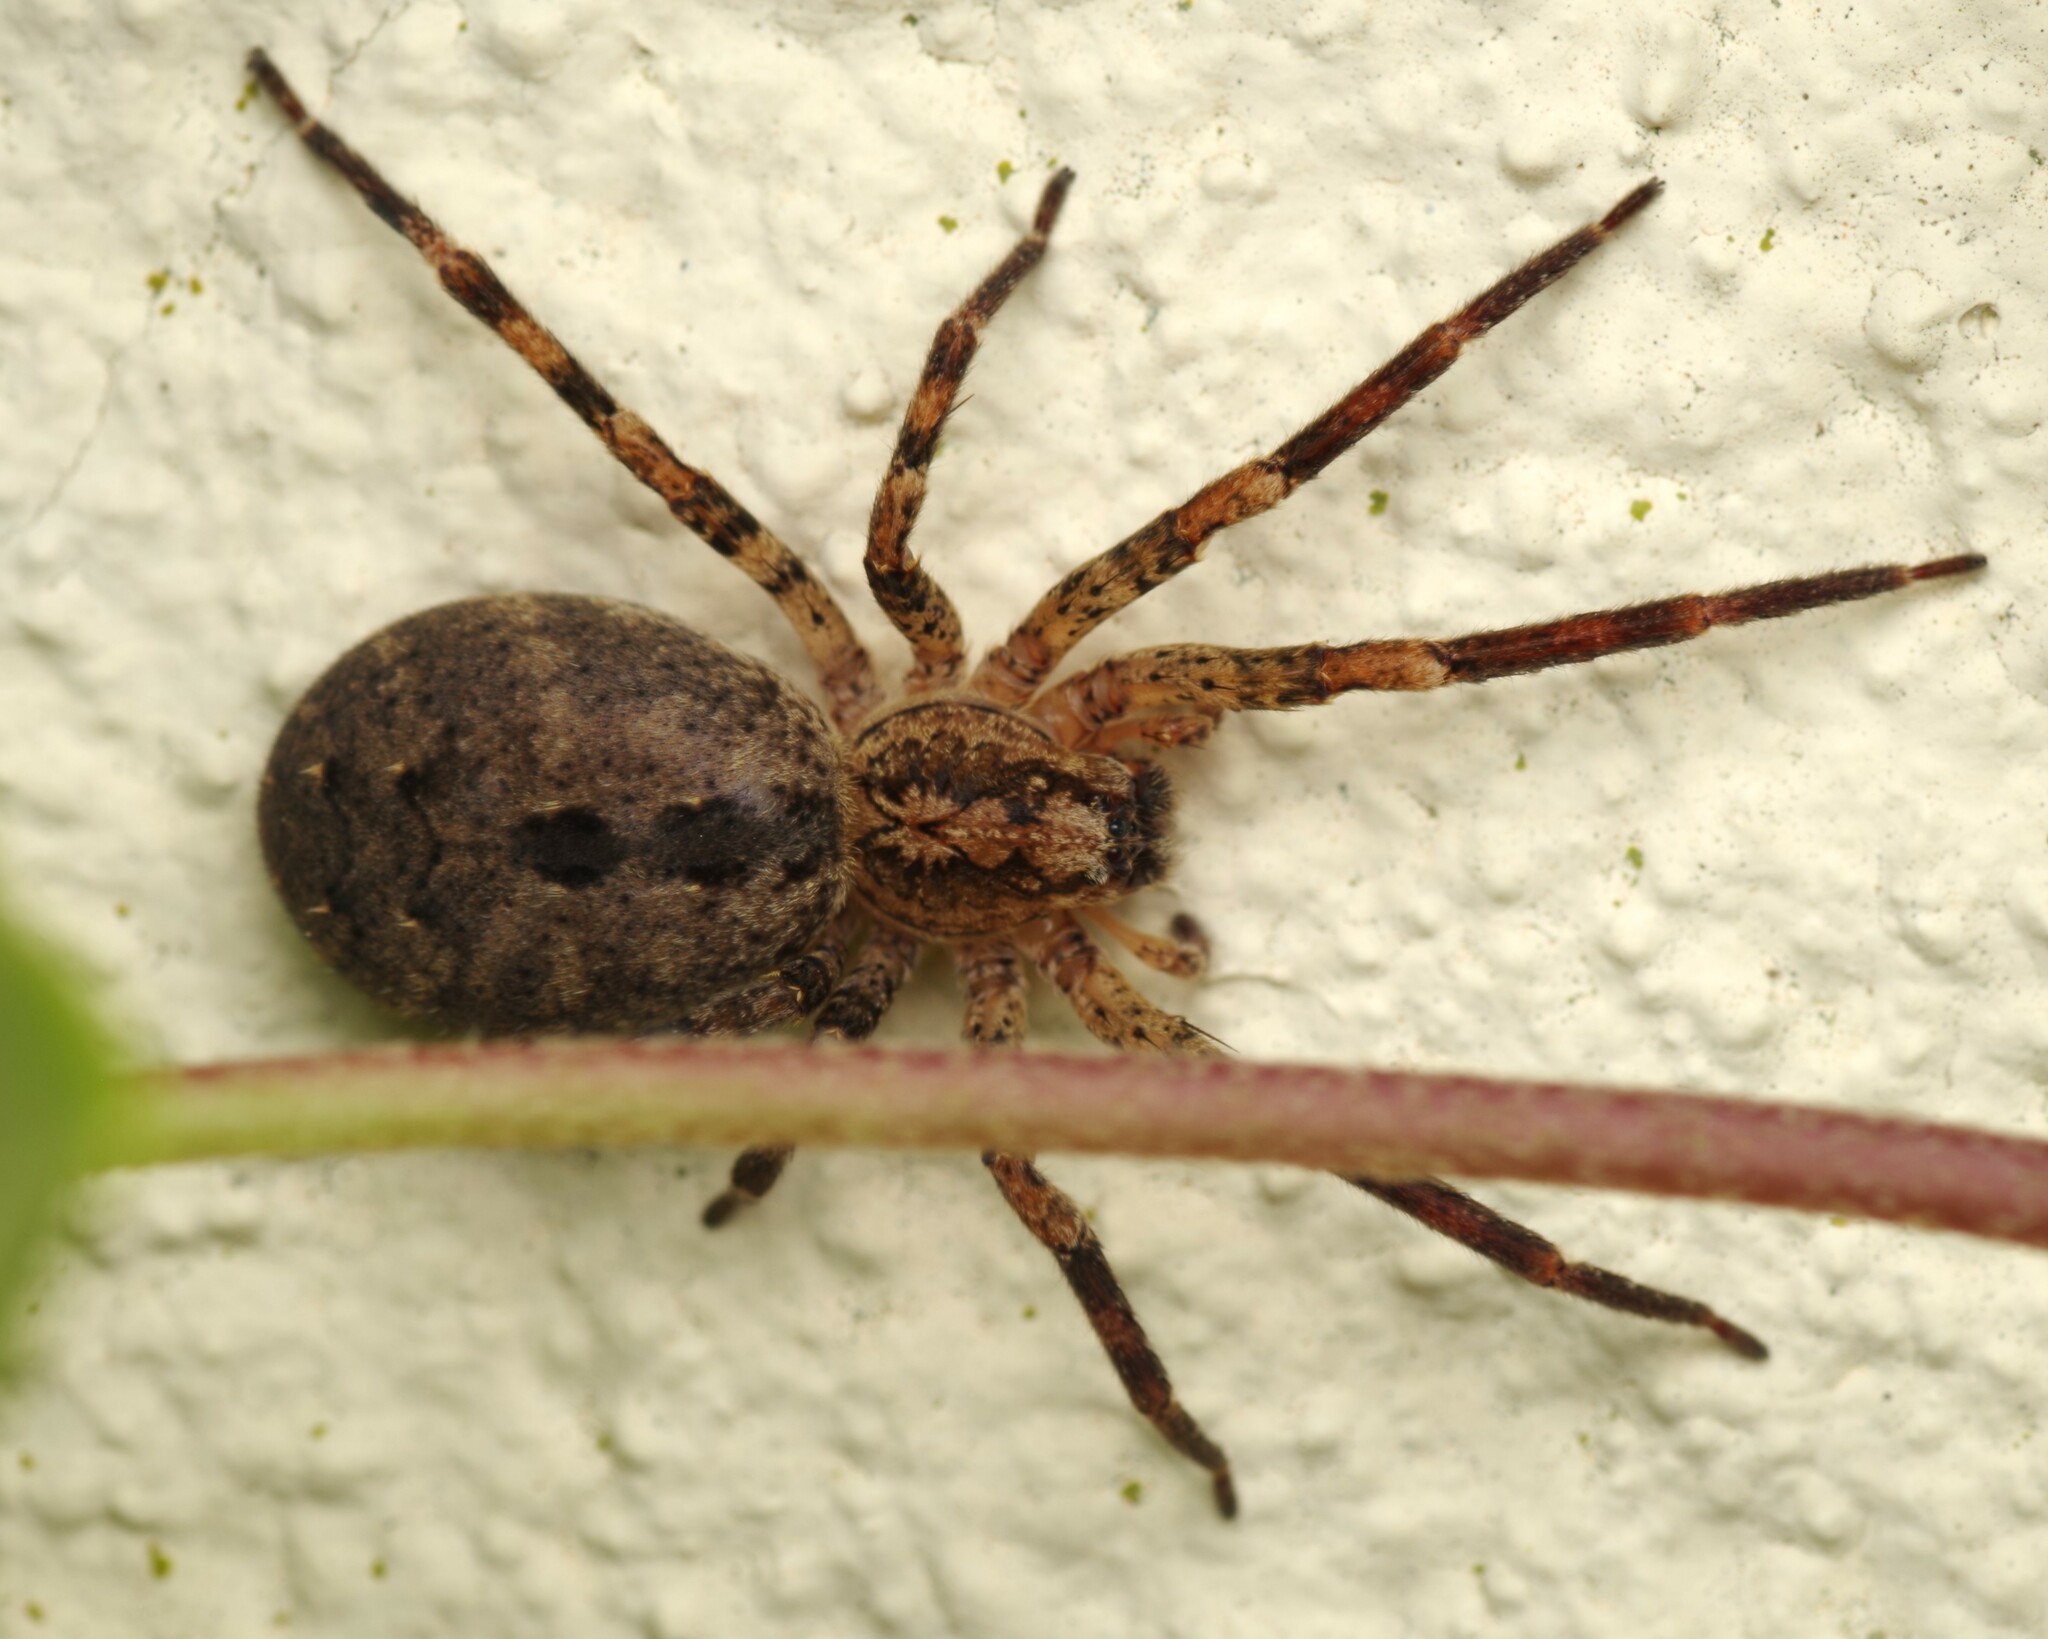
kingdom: Animalia
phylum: Arthropoda
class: Arachnida
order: Araneae
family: Zoropsidae
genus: Zoropsis
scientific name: Zoropsis spinimana
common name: Zoropsid spider
